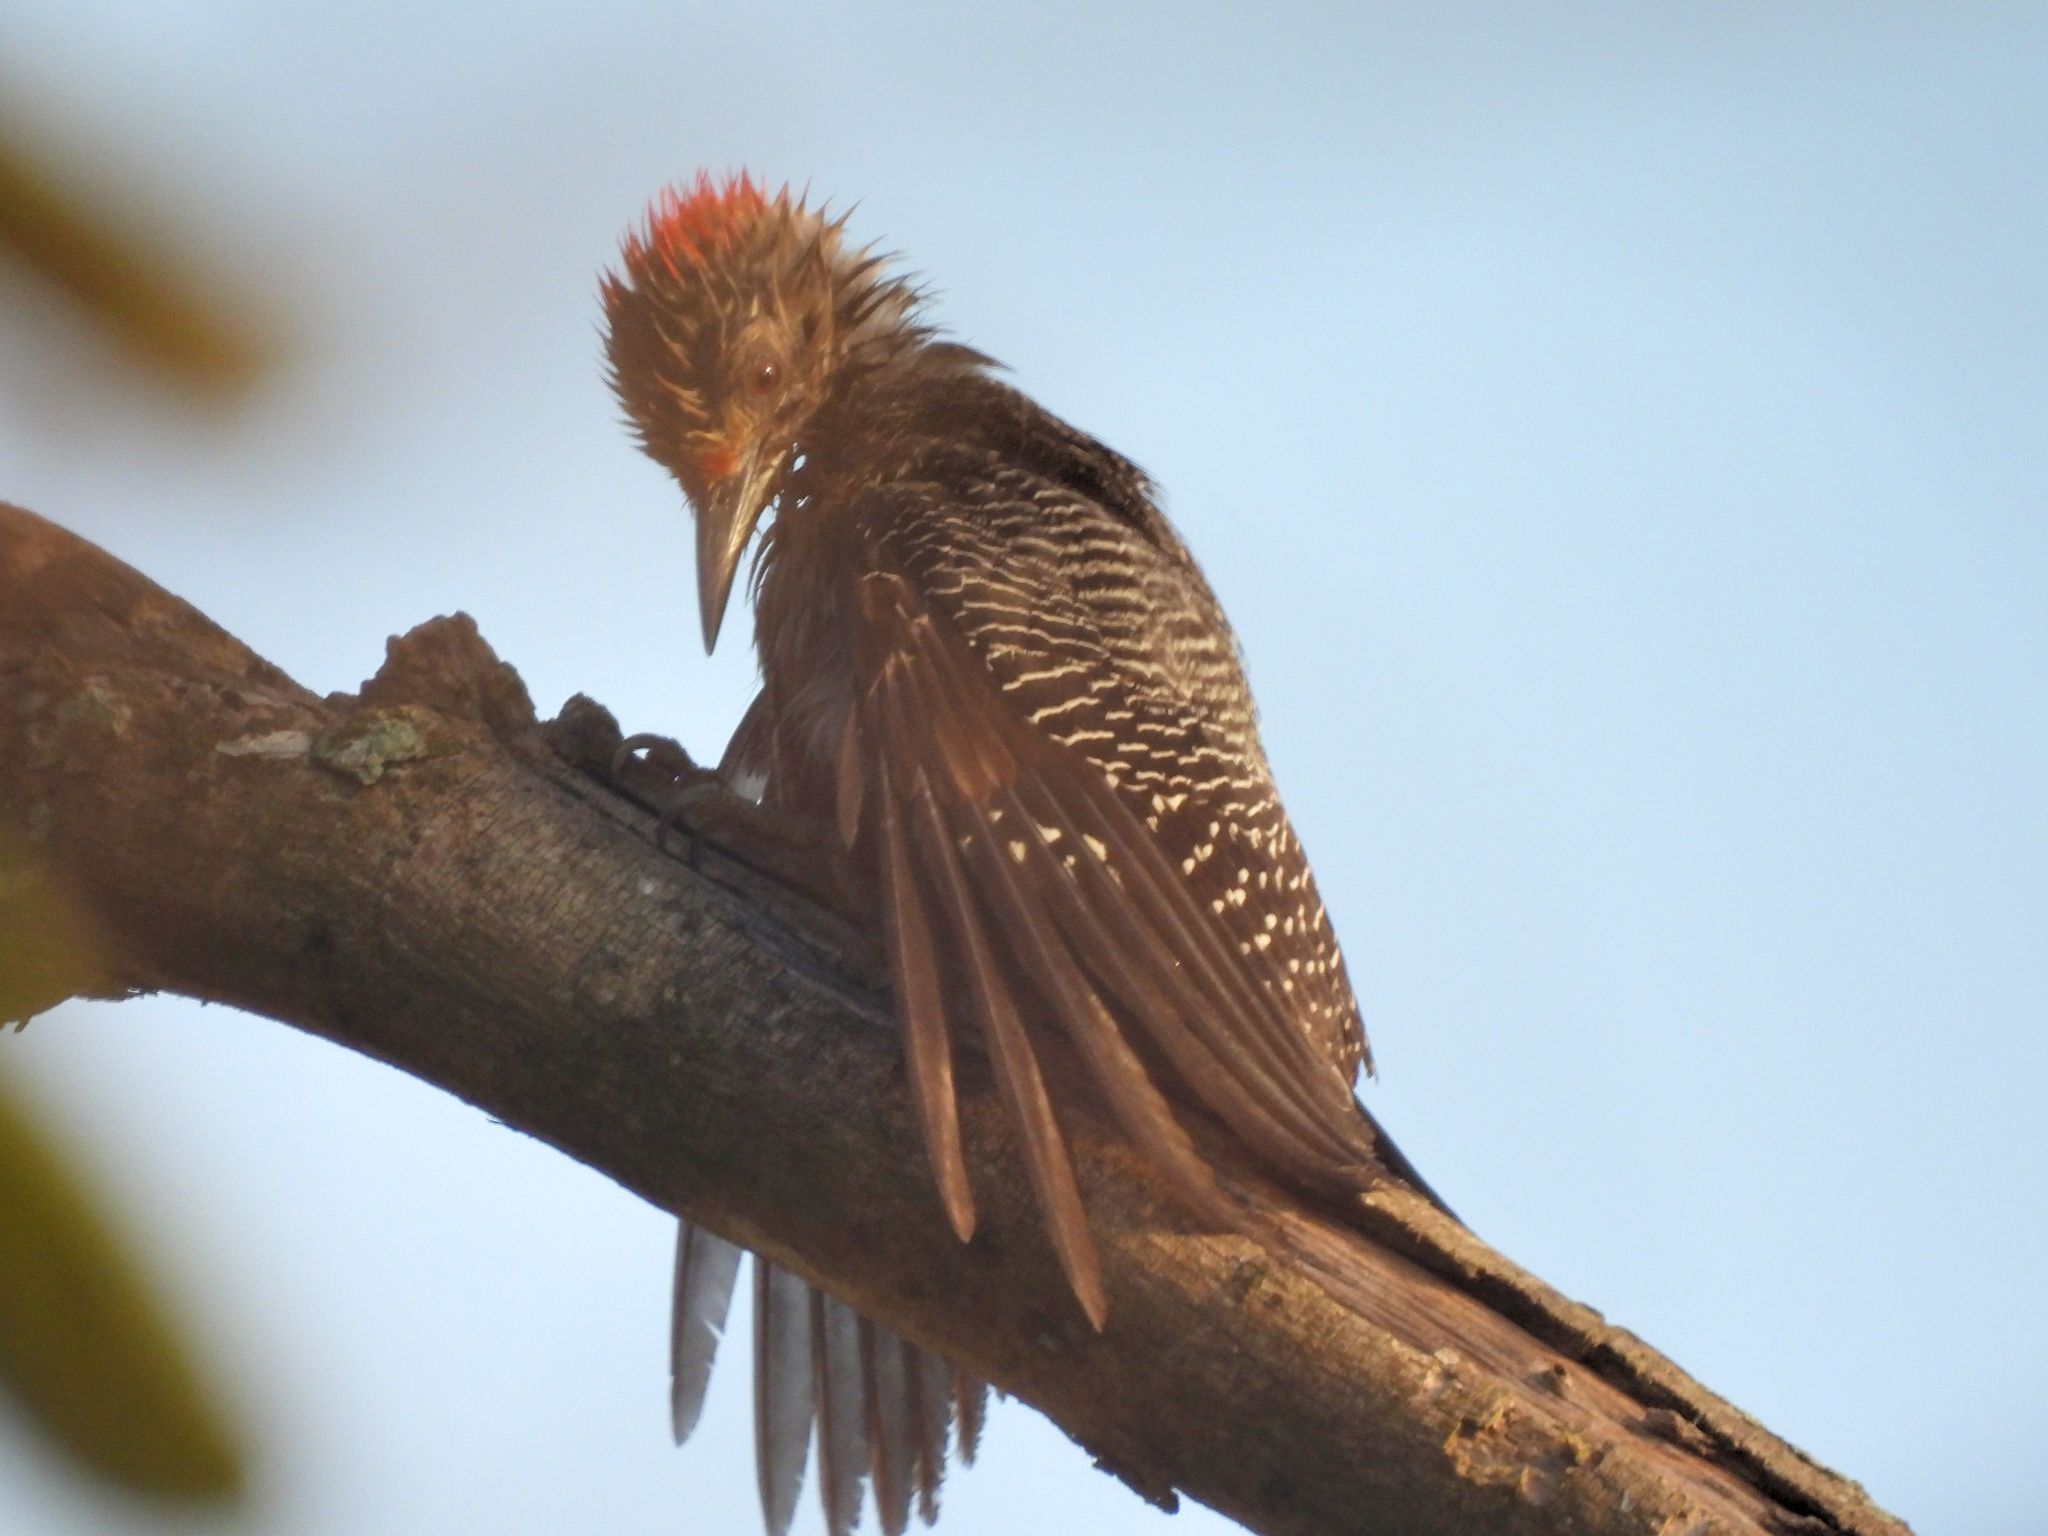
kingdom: Animalia
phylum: Chordata
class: Aves
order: Piciformes
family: Picidae
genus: Melanerpes
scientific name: Melanerpes aurifrons
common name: Golden-fronted woodpecker
